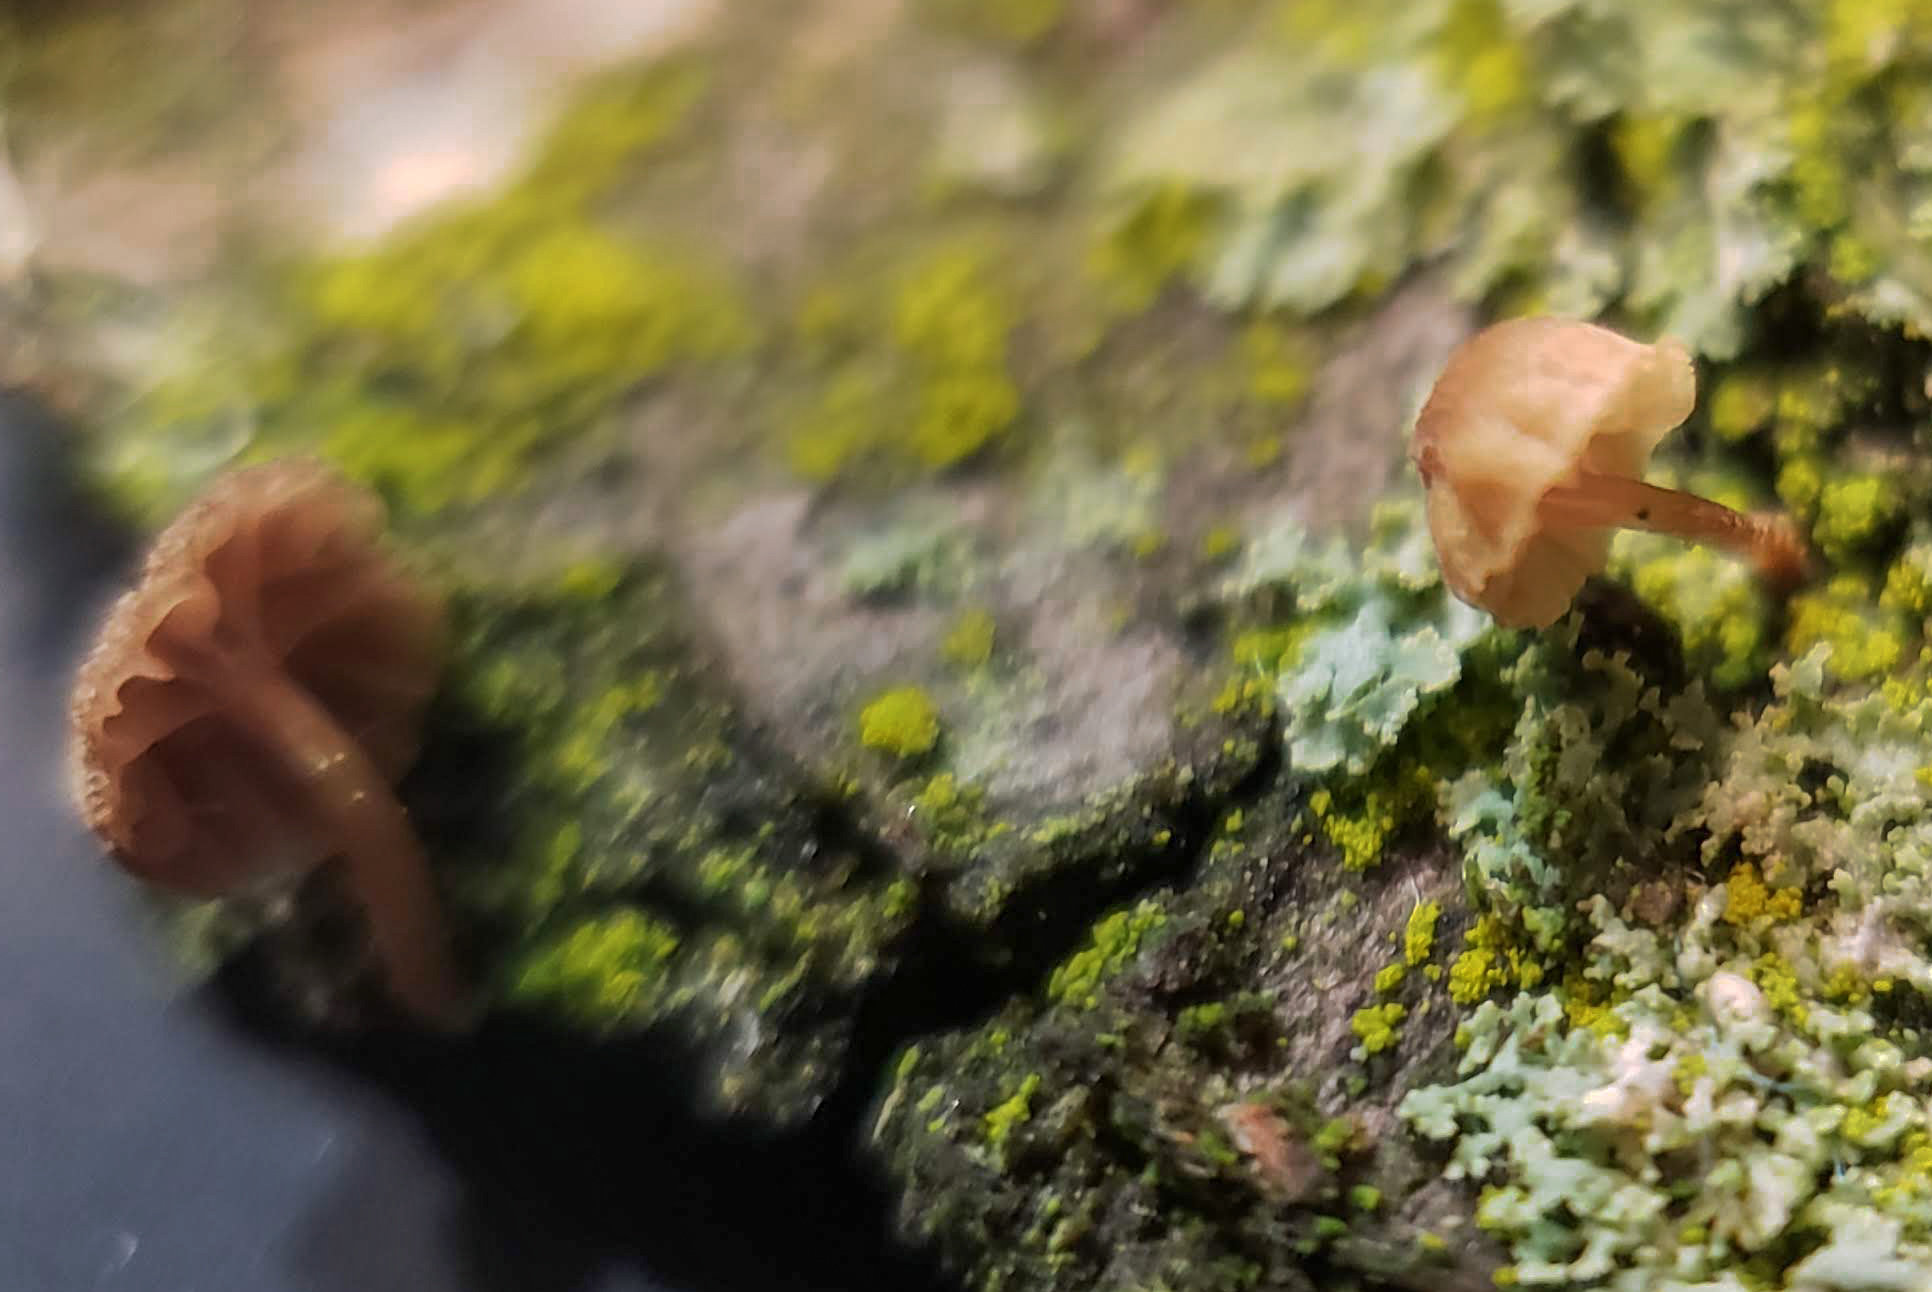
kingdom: Fungi
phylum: Basidiomycota
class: Agaricomycetes
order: Agaricales
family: Mycenaceae
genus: Mycena
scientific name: Mycena corticola
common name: Bark mycena
